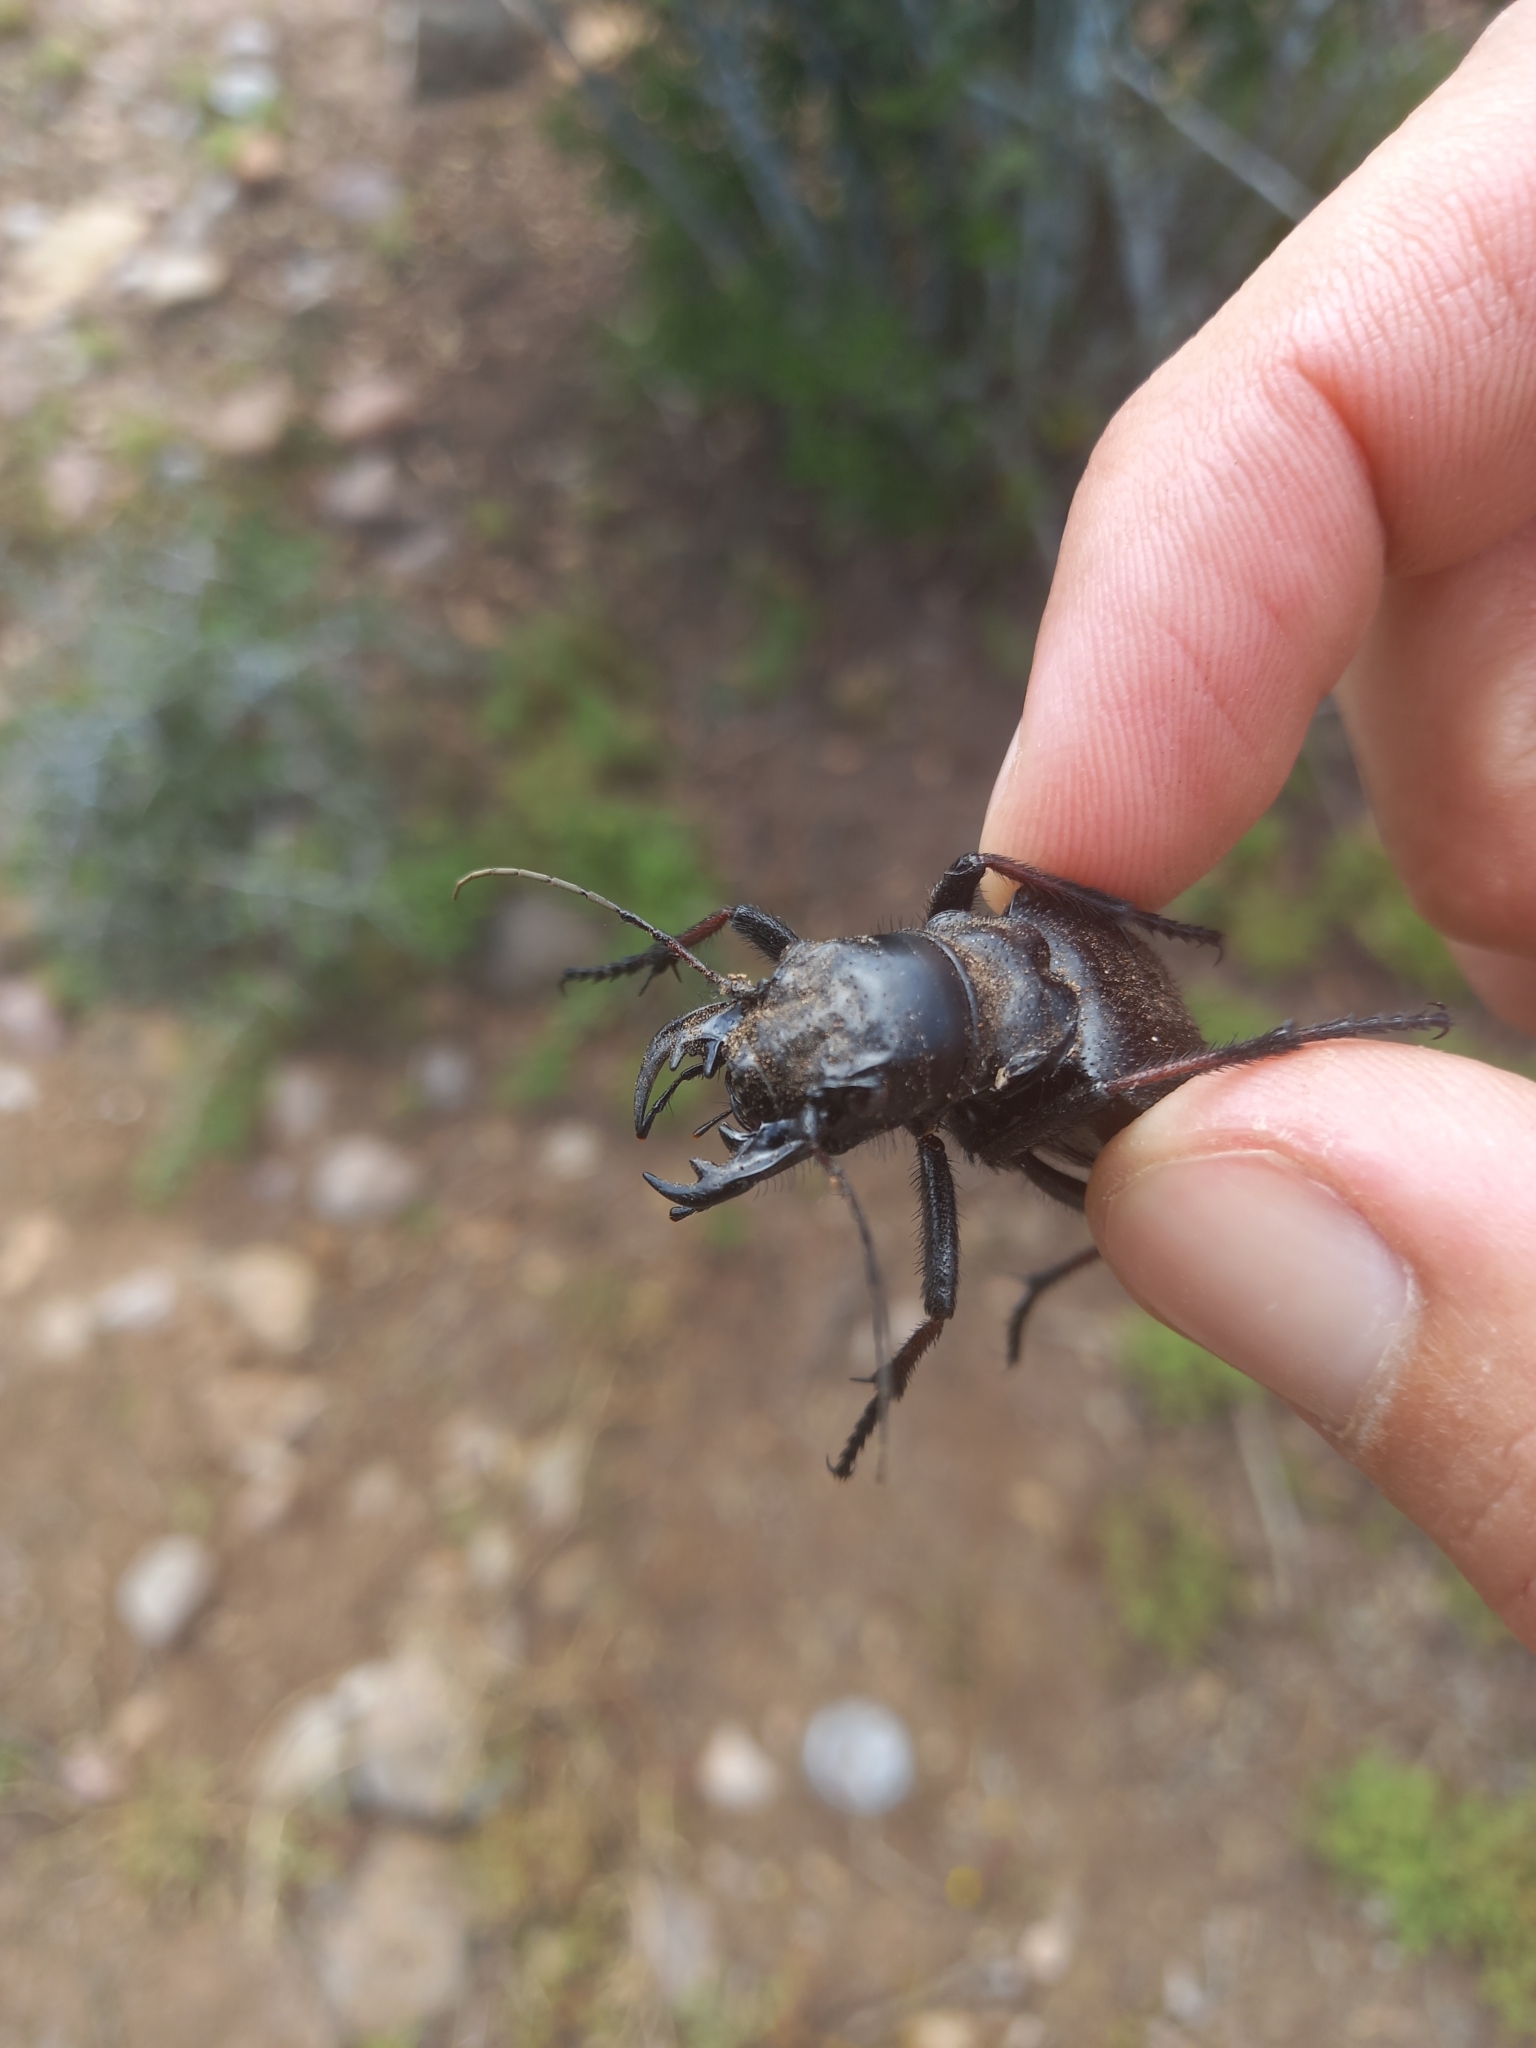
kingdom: Animalia
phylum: Arthropoda
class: Insecta
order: Coleoptera
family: Carabidae
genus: Manticora
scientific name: Manticora tibialis
